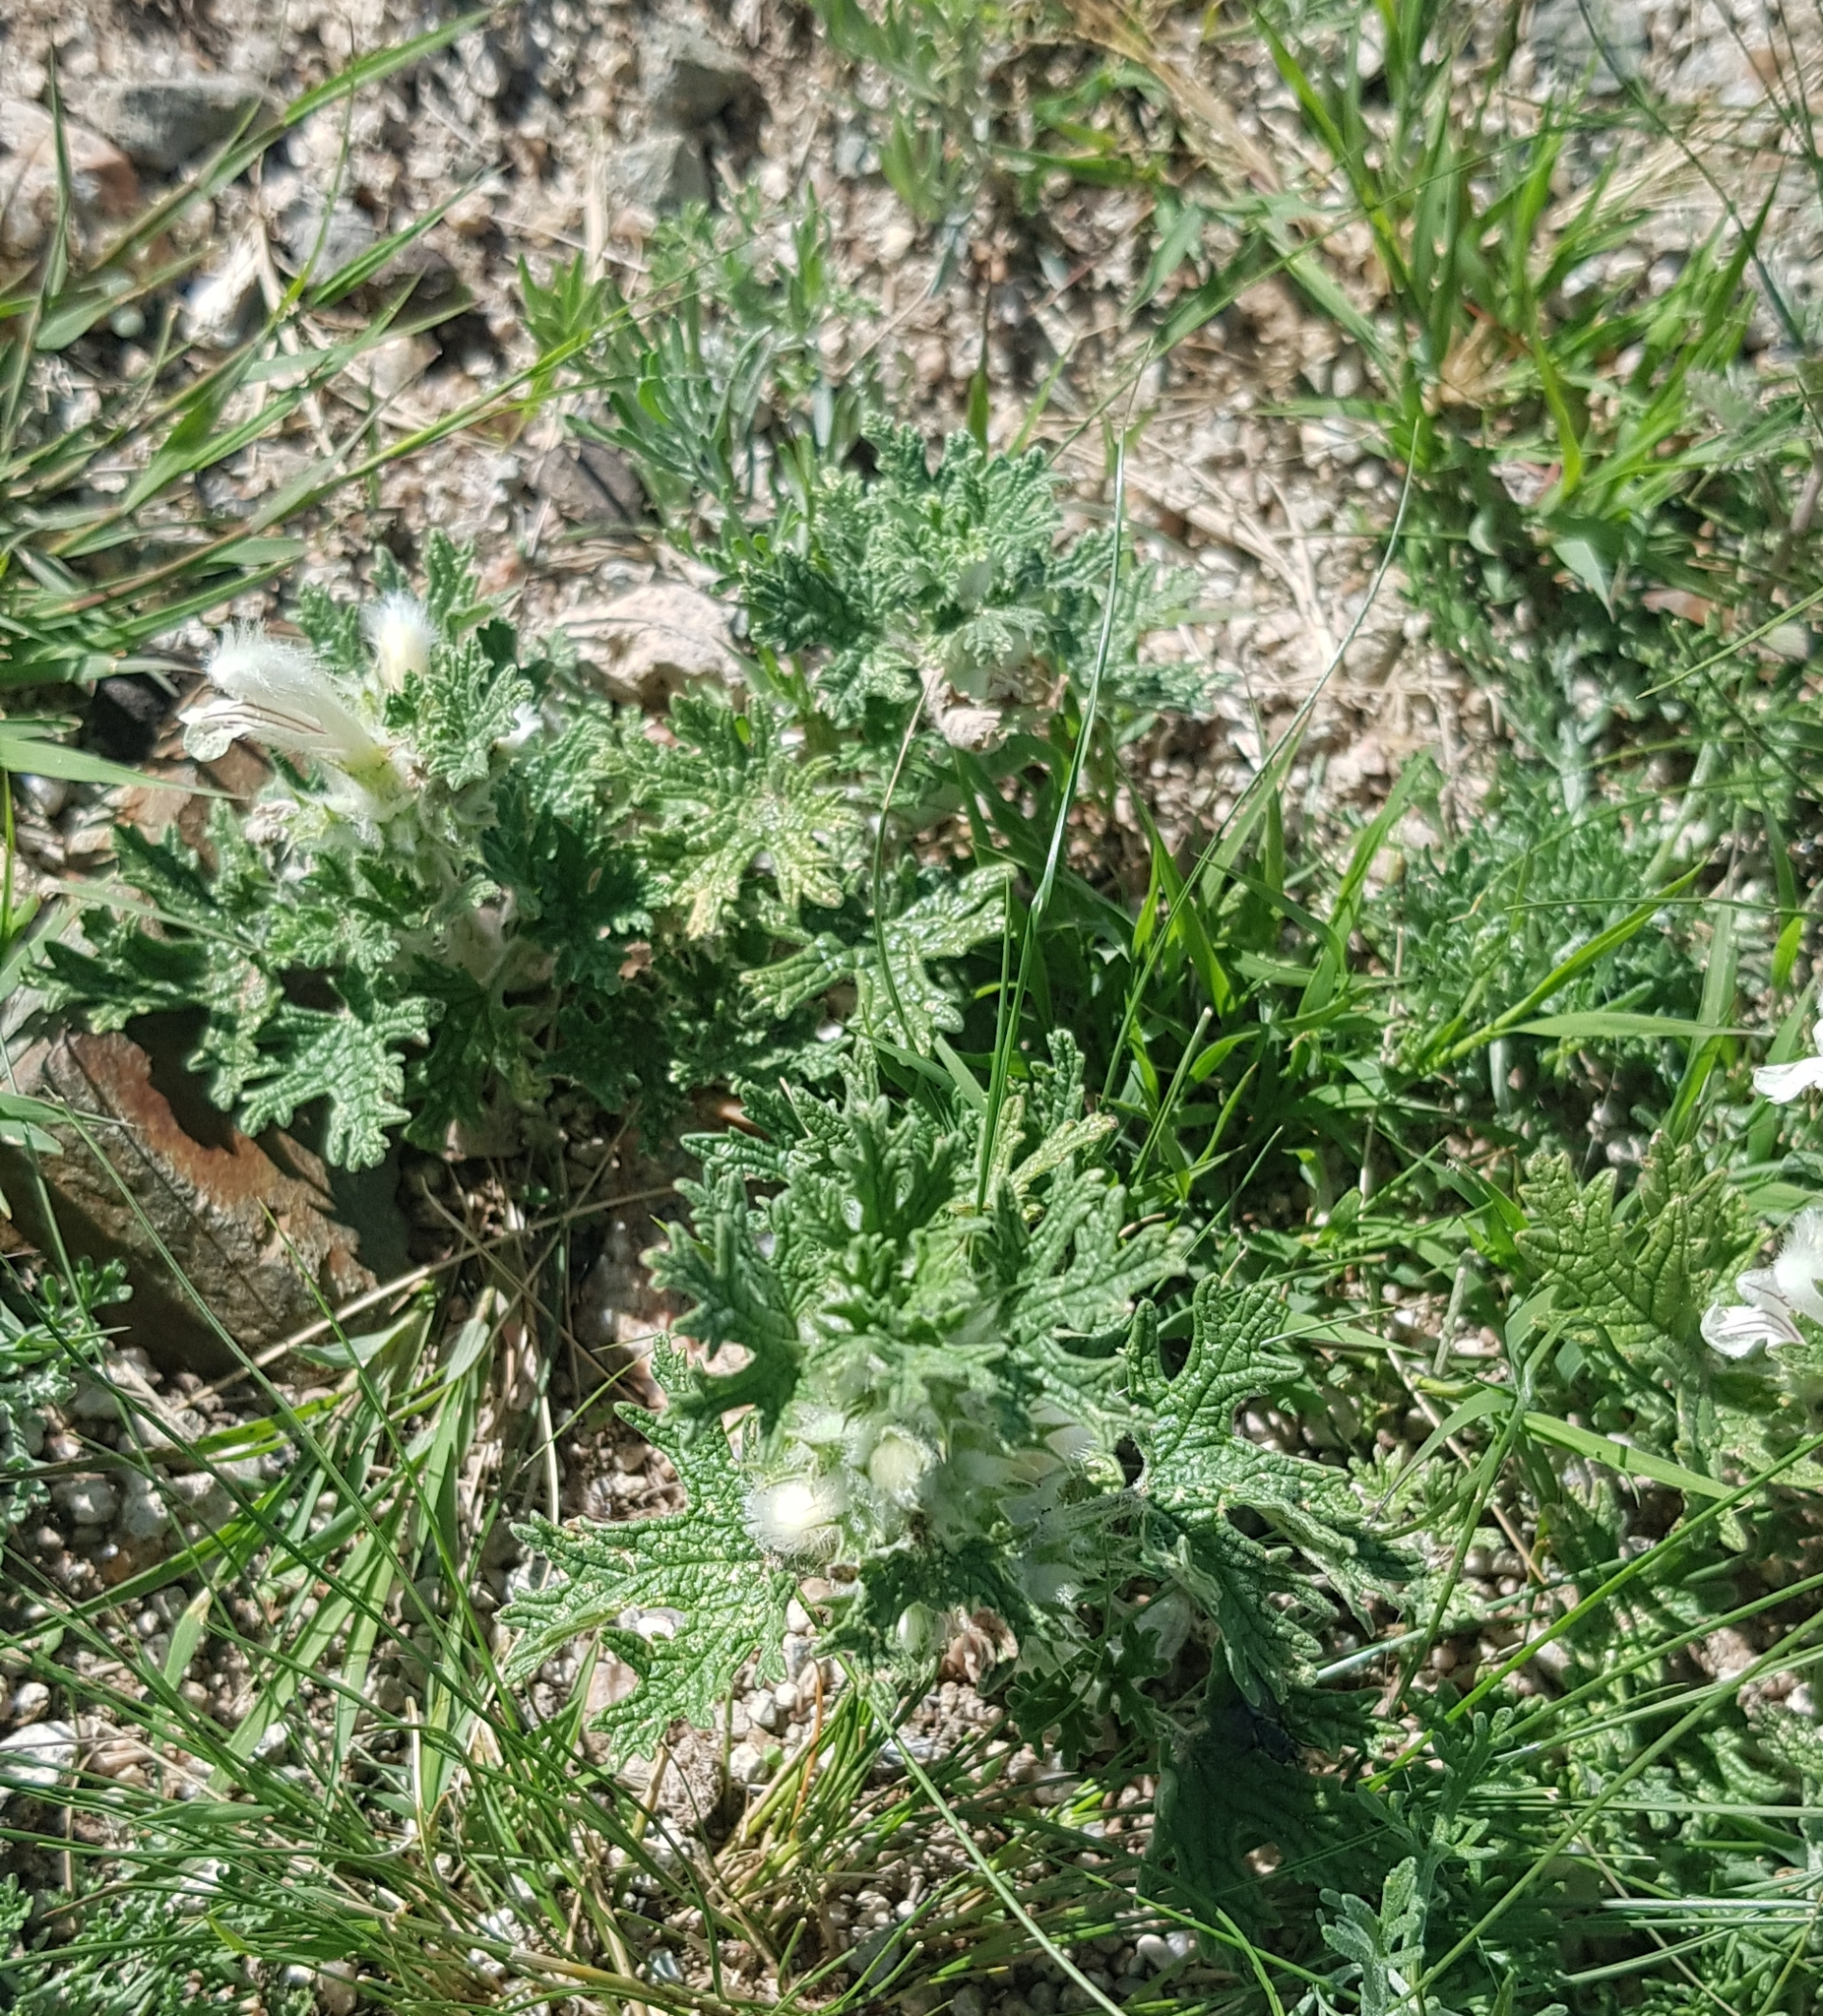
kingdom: Plantae
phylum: Tracheophyta
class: Magnoliopsida
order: Lamiales
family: Lamiaceae
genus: Panzerina
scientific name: Panzerina lanata
